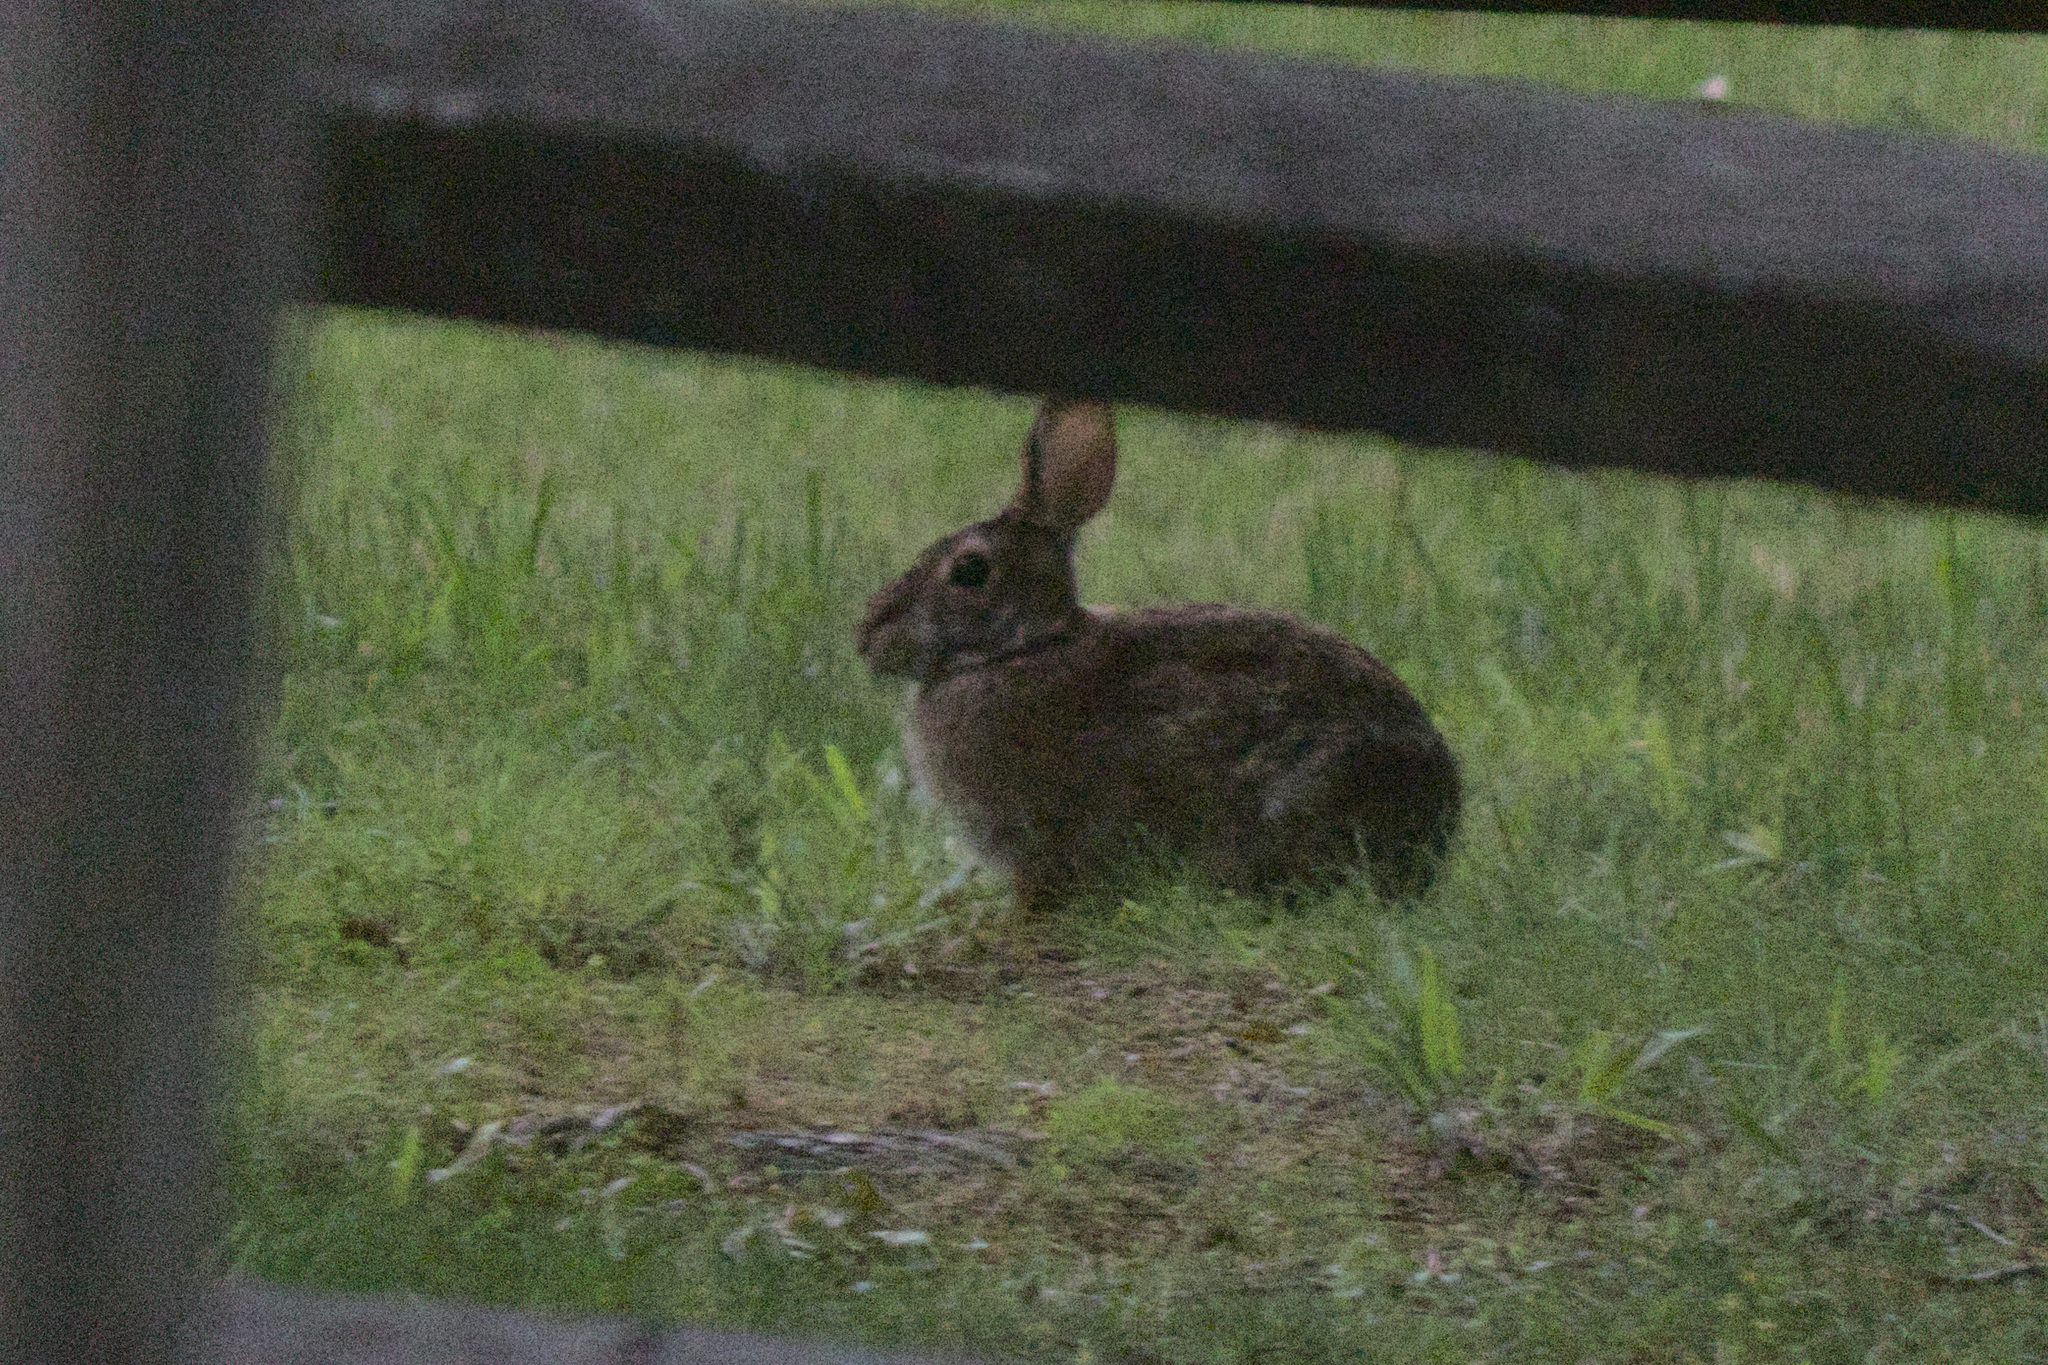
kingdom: Animalia
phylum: Chordata
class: Mammalia
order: Lagomorpha
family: Leporidae
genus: Sylvilagus
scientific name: Sylvilagus floridanus
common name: Eastern cottontail
